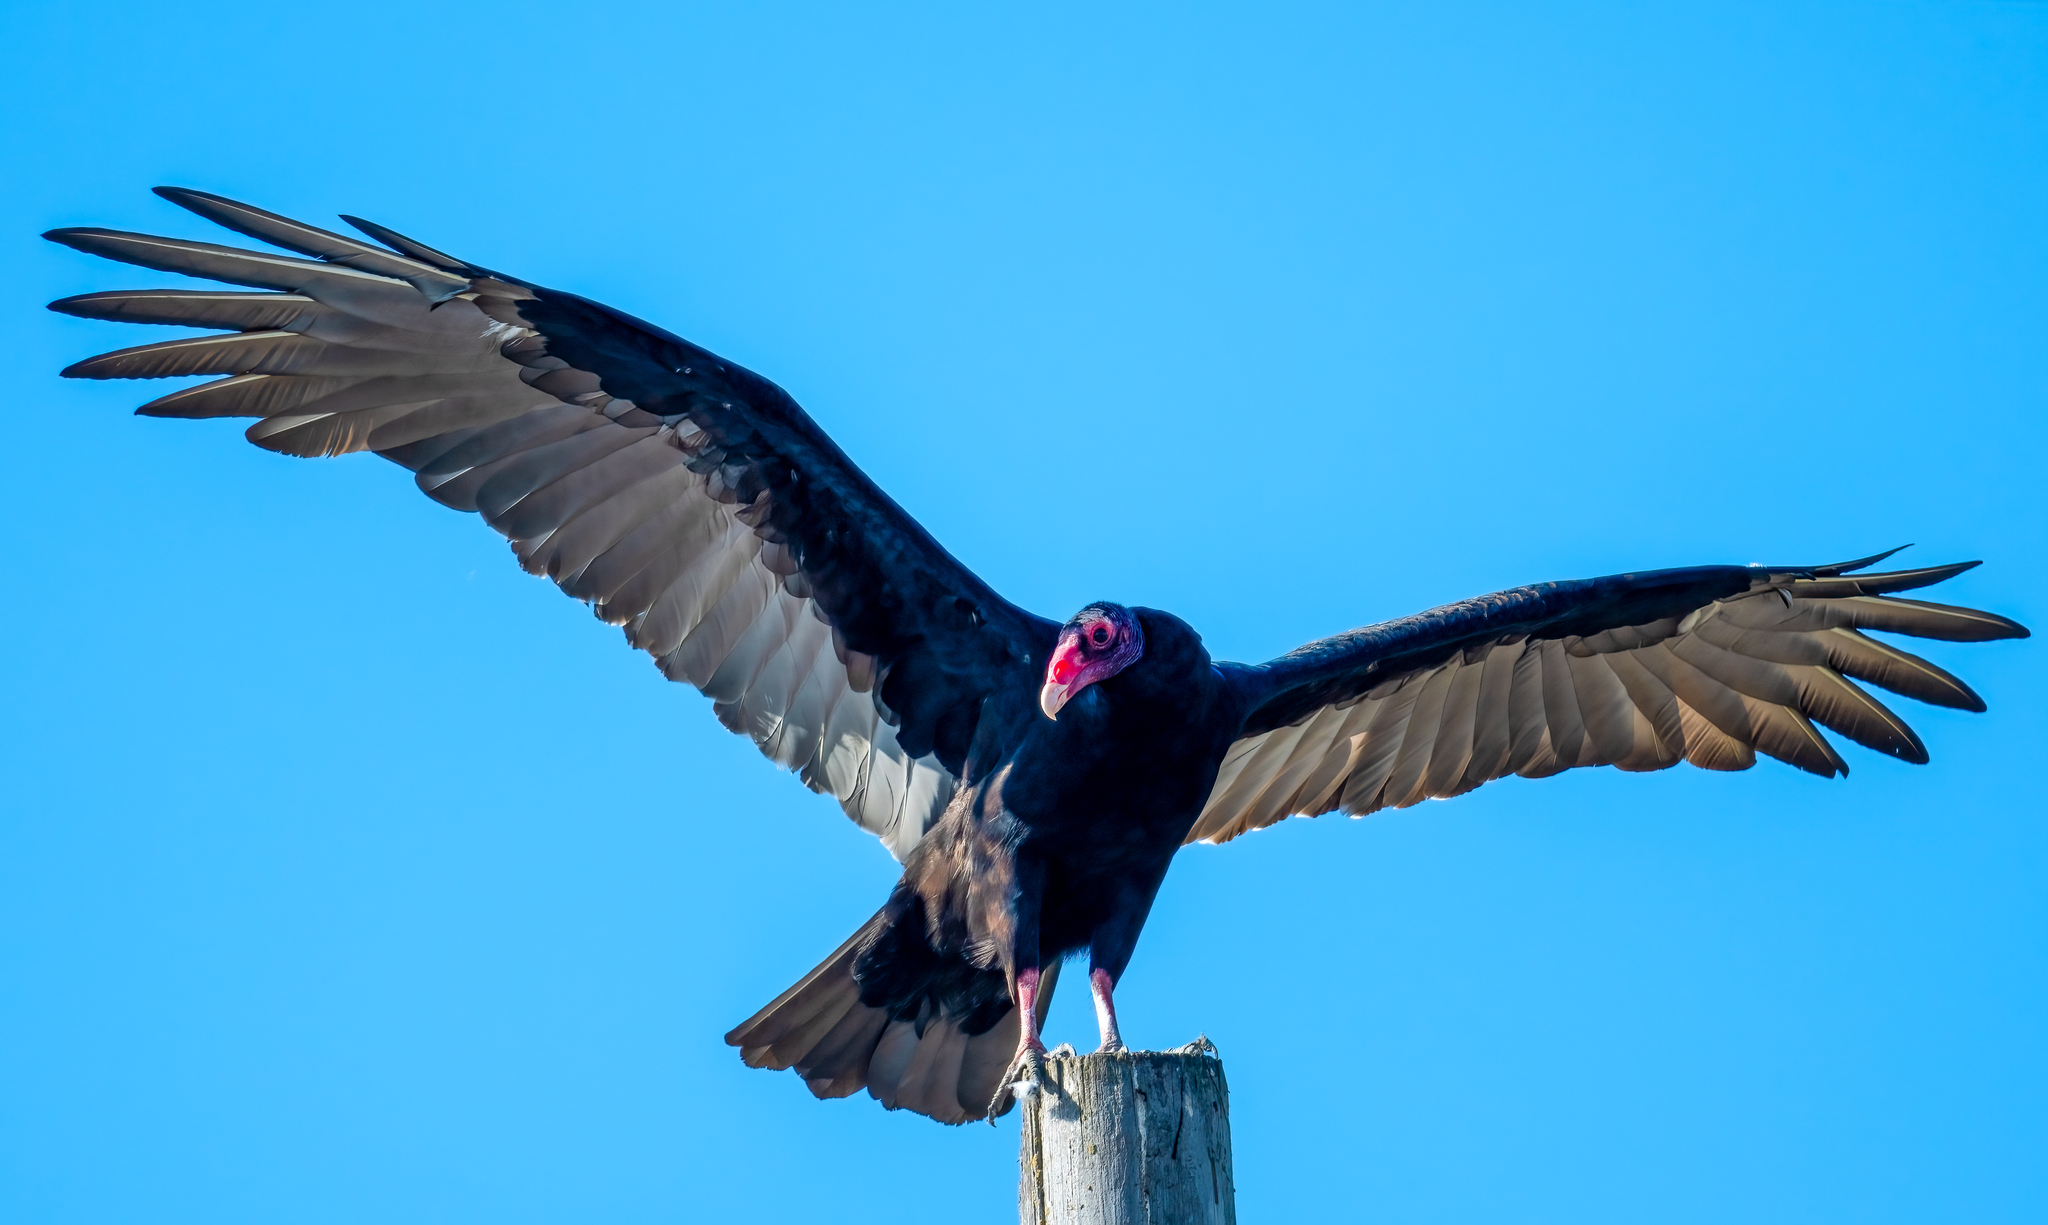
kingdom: Animalia
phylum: Chordata
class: Aves
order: Accipitriformes
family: Cathartidae
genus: Cathartes
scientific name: Cathartes aura
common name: Turkey vulture
